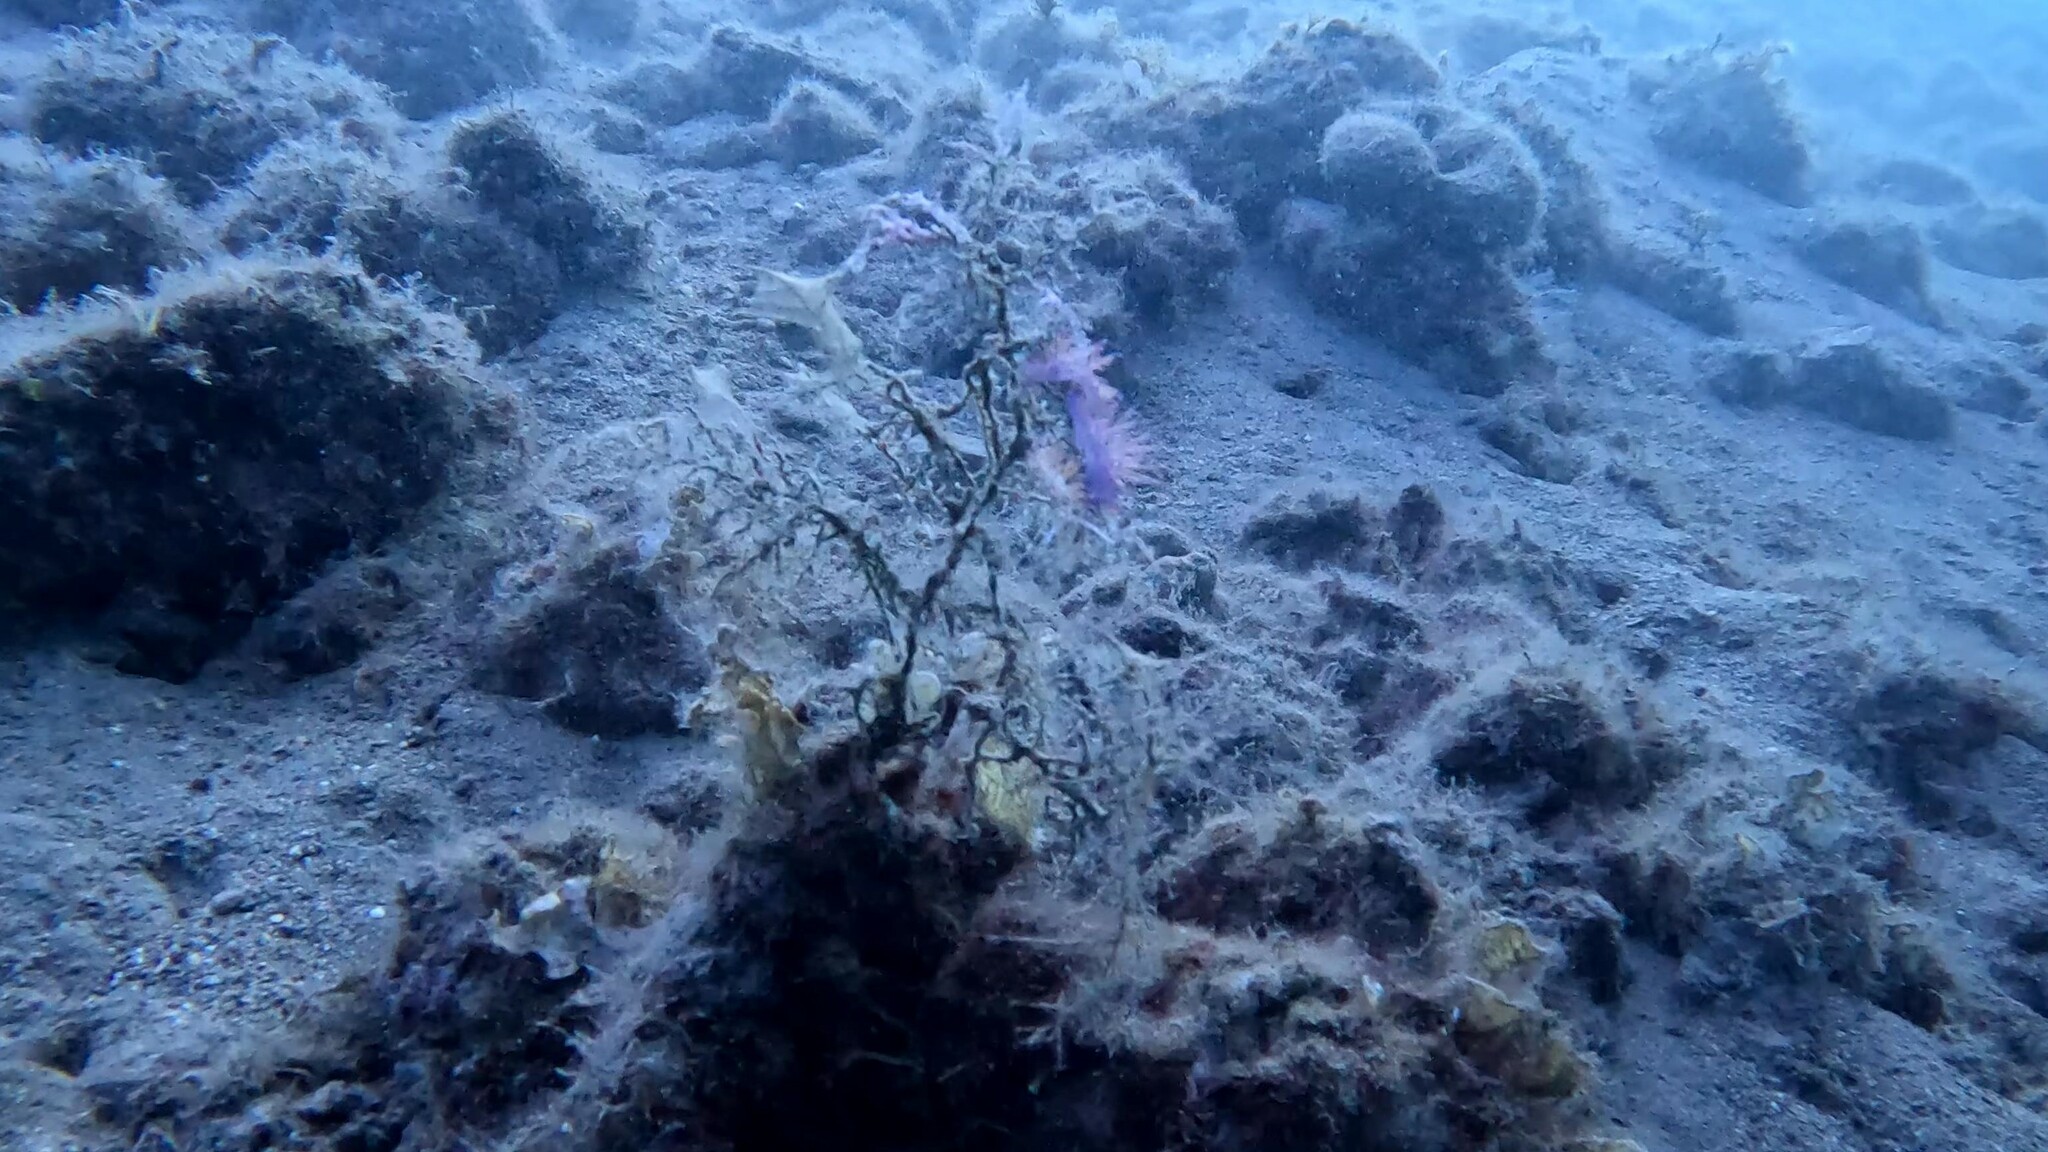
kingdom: Animalia
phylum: Mollusca
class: Gastropoda
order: Nudibranchia
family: Flabellinidae
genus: Flabellina
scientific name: Flabellina affinis
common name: Mediterranean violet aeolid
